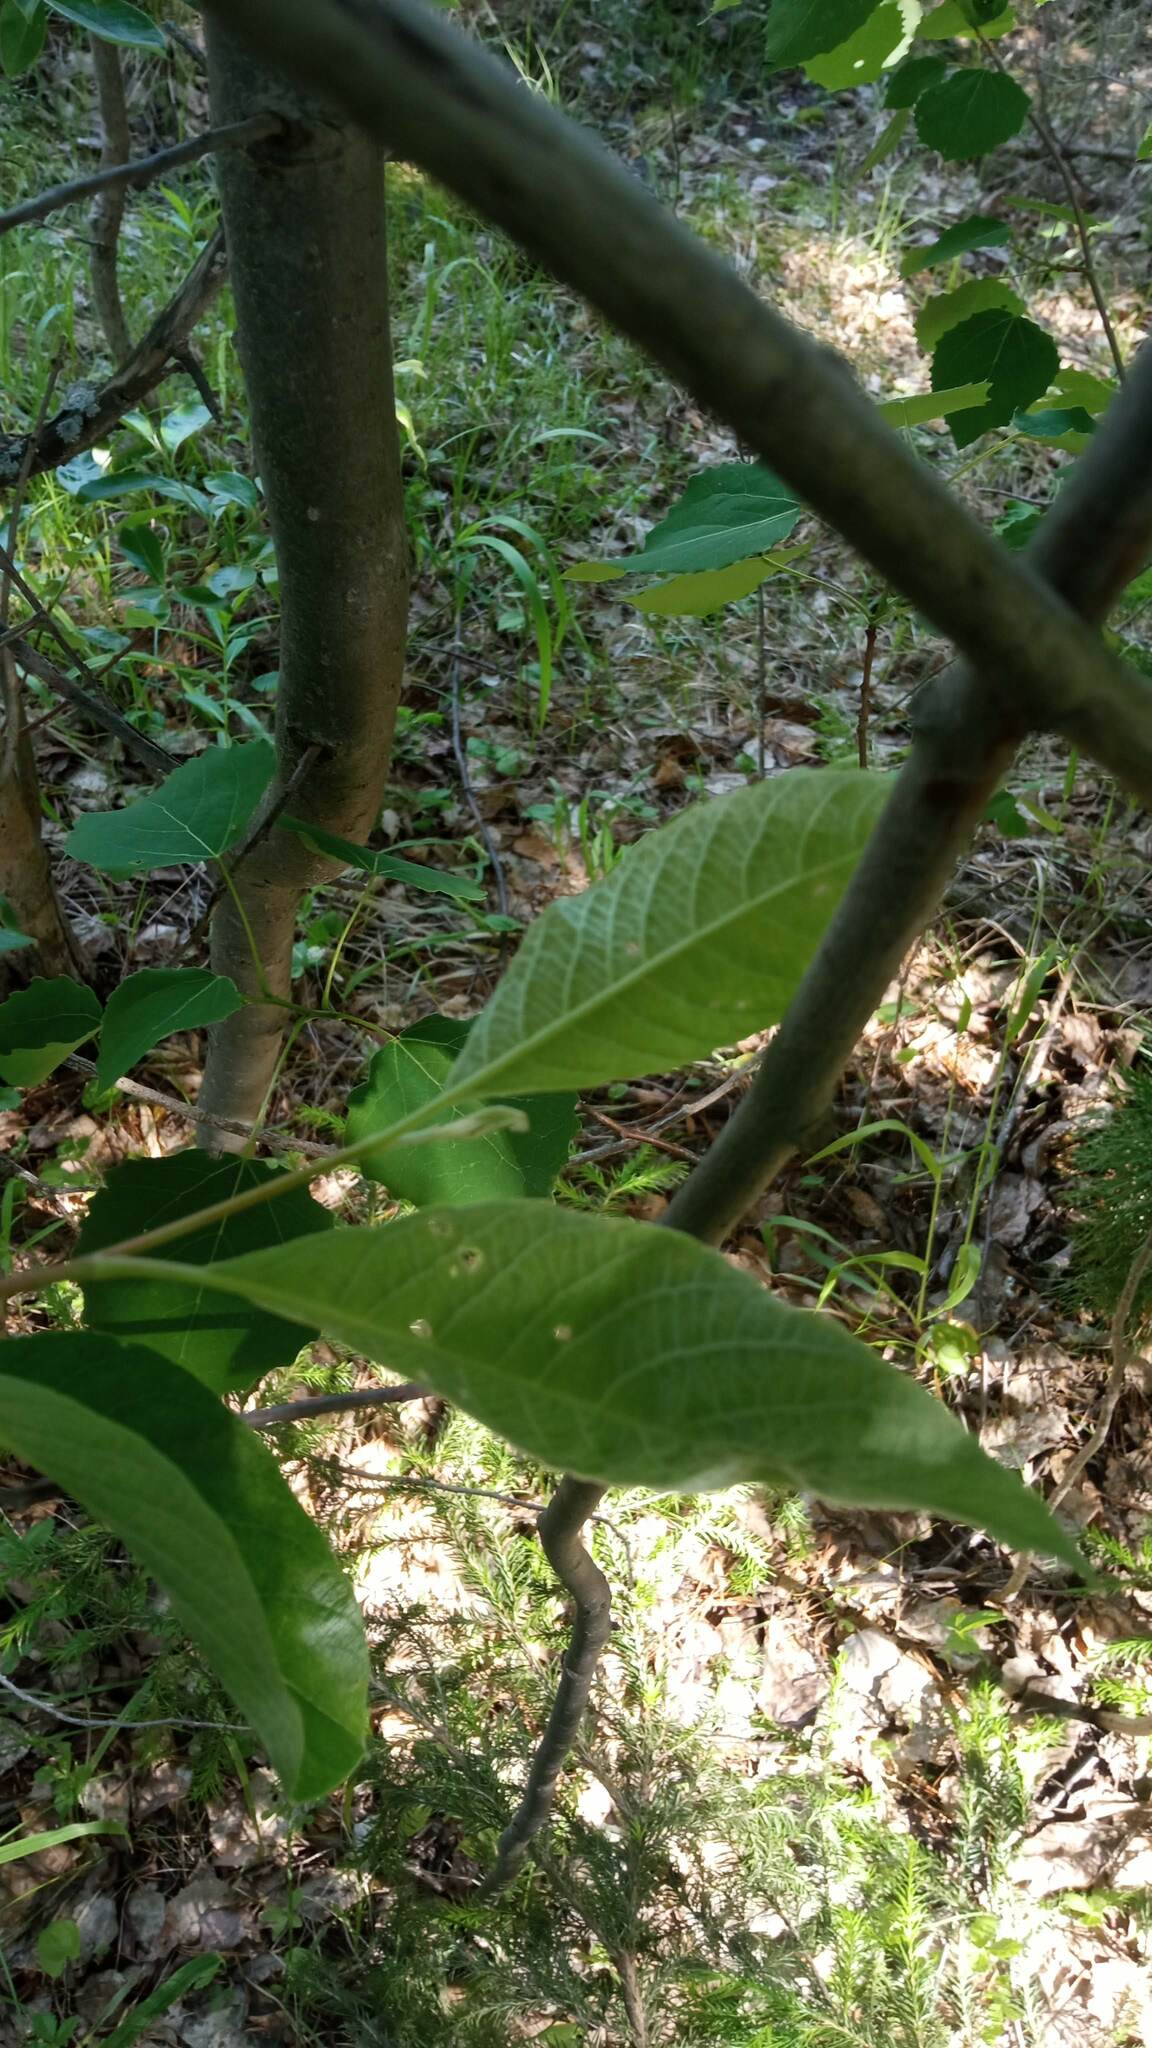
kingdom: Plantae
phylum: Tracheophyta
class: Magnoliopsida
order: Malpighiales
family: Salicaceae
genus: Salix
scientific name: Salix caprea
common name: Goat willow
